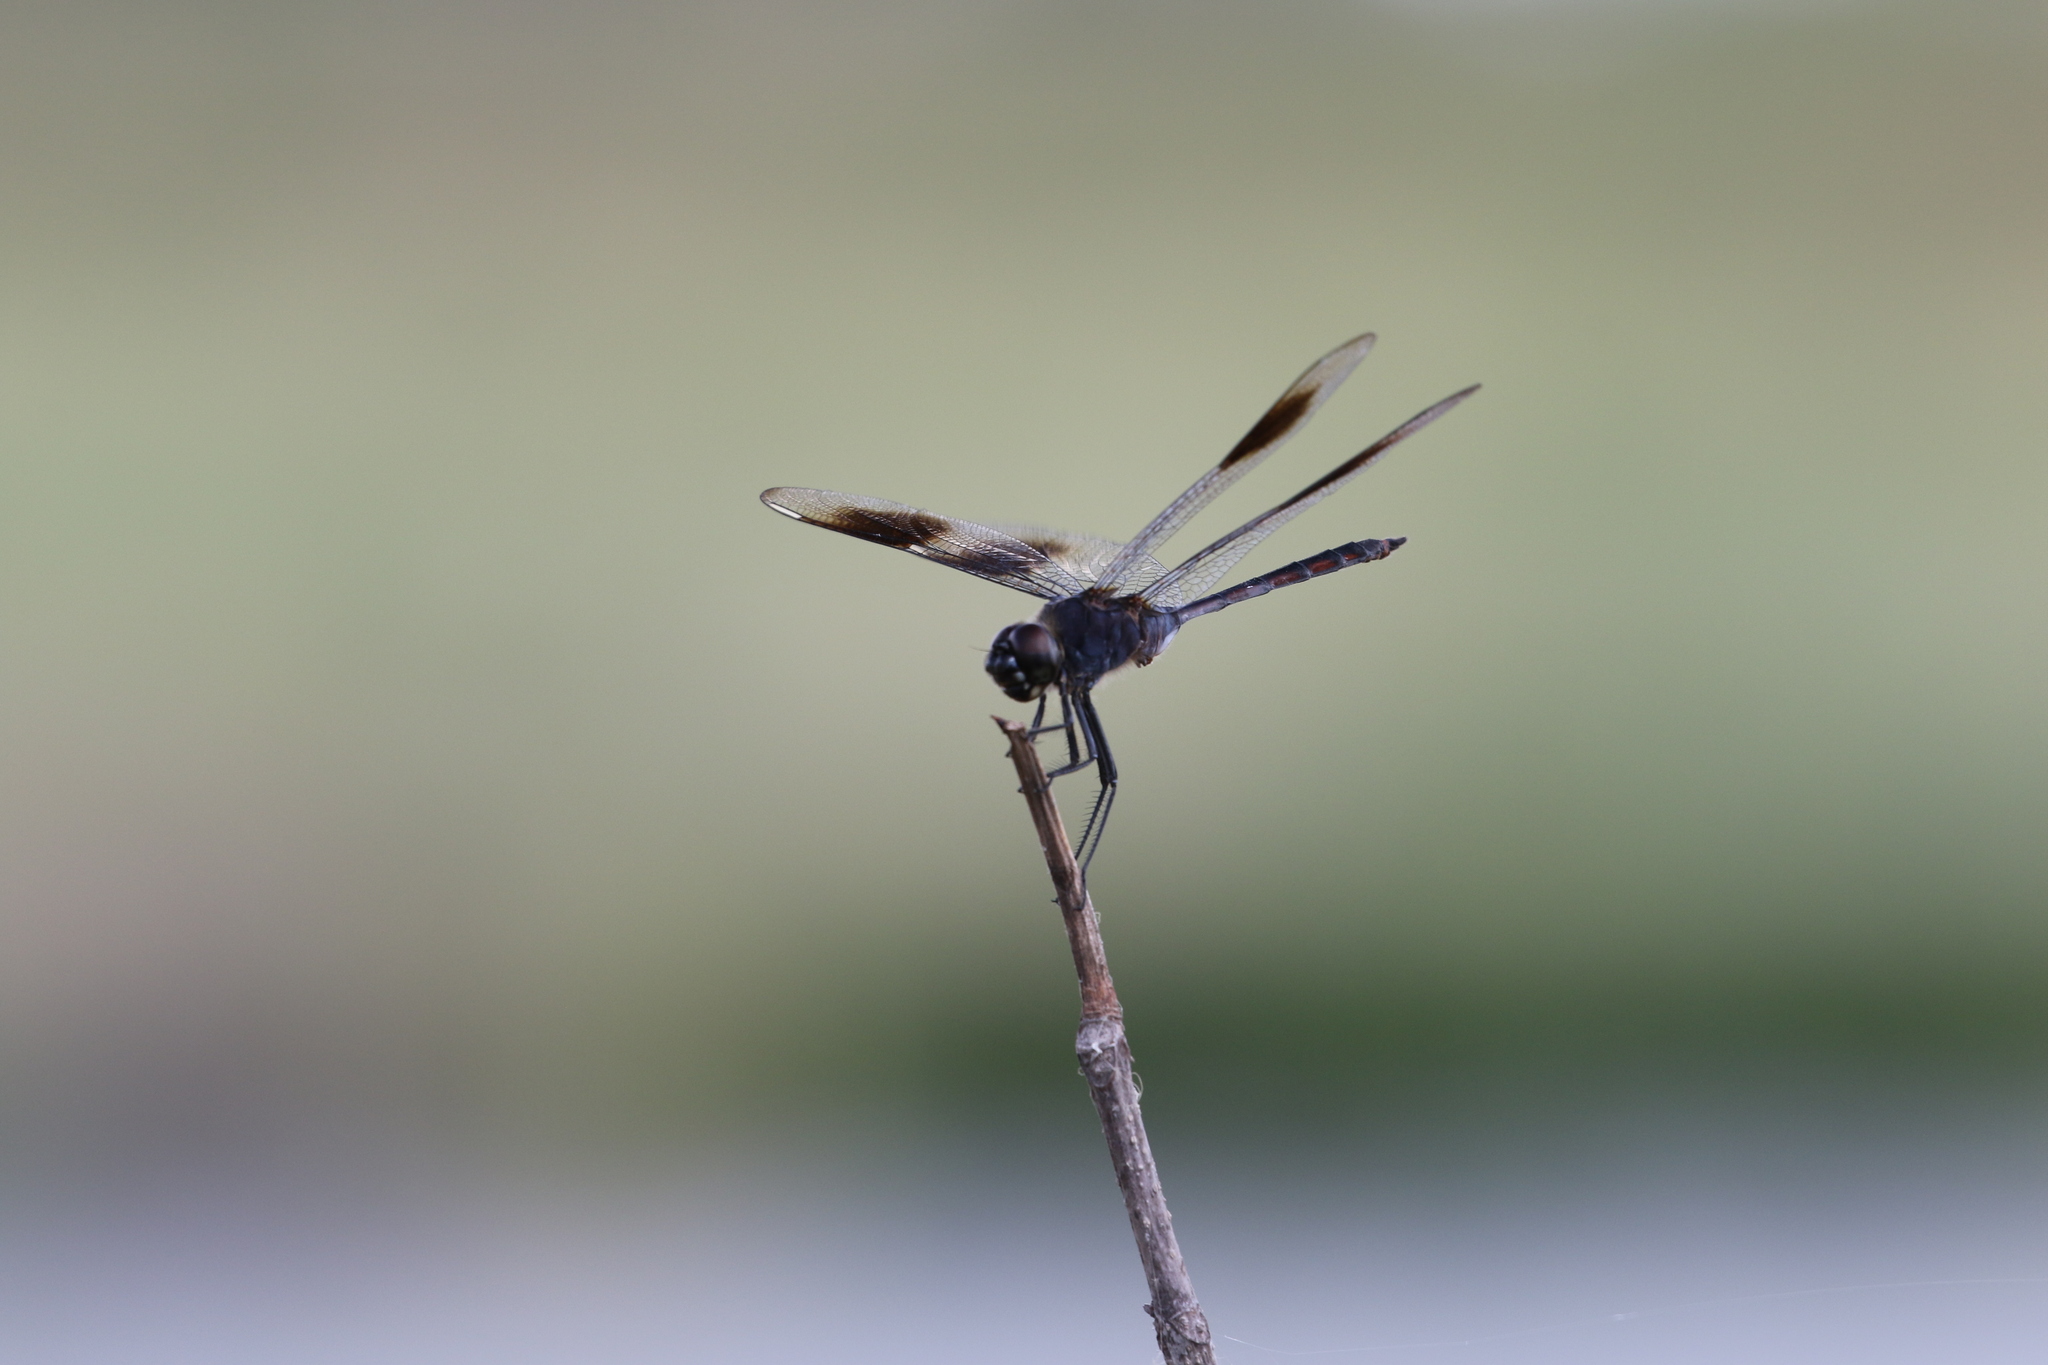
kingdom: Animalia
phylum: Arthropoda
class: Insecta
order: Odonata
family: Libellulidae
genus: Brachymesia
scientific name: Brachymesia gravida
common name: Four-spotted pennant
